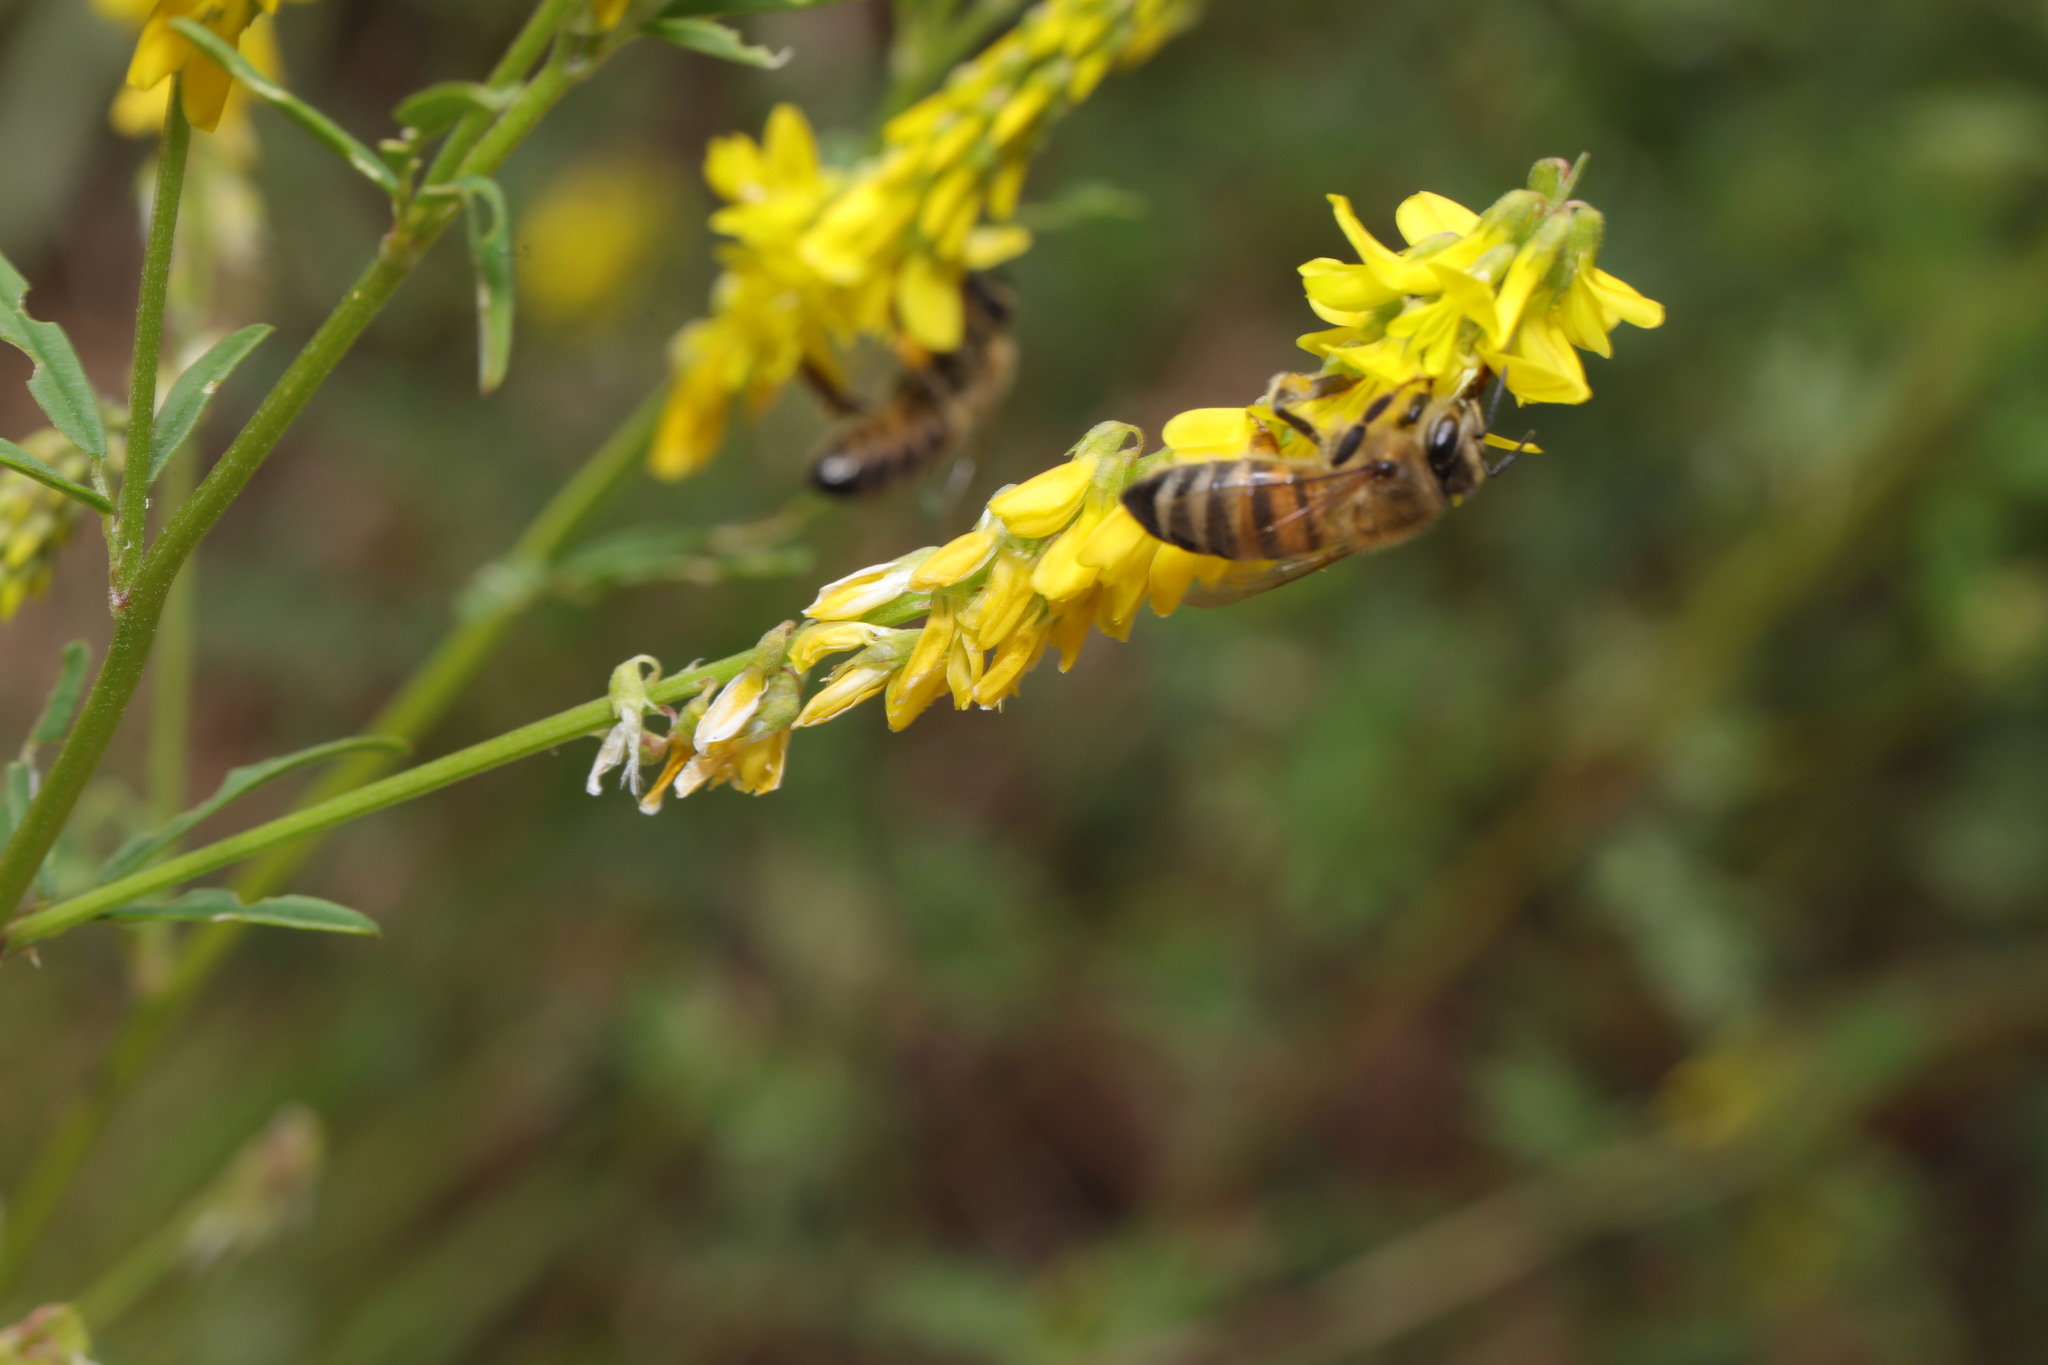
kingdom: Animalia
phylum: Arthropoda
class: Insecta
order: Hymenoptera
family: Apidae
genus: Apis
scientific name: Apis mellifera
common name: Honey bee
